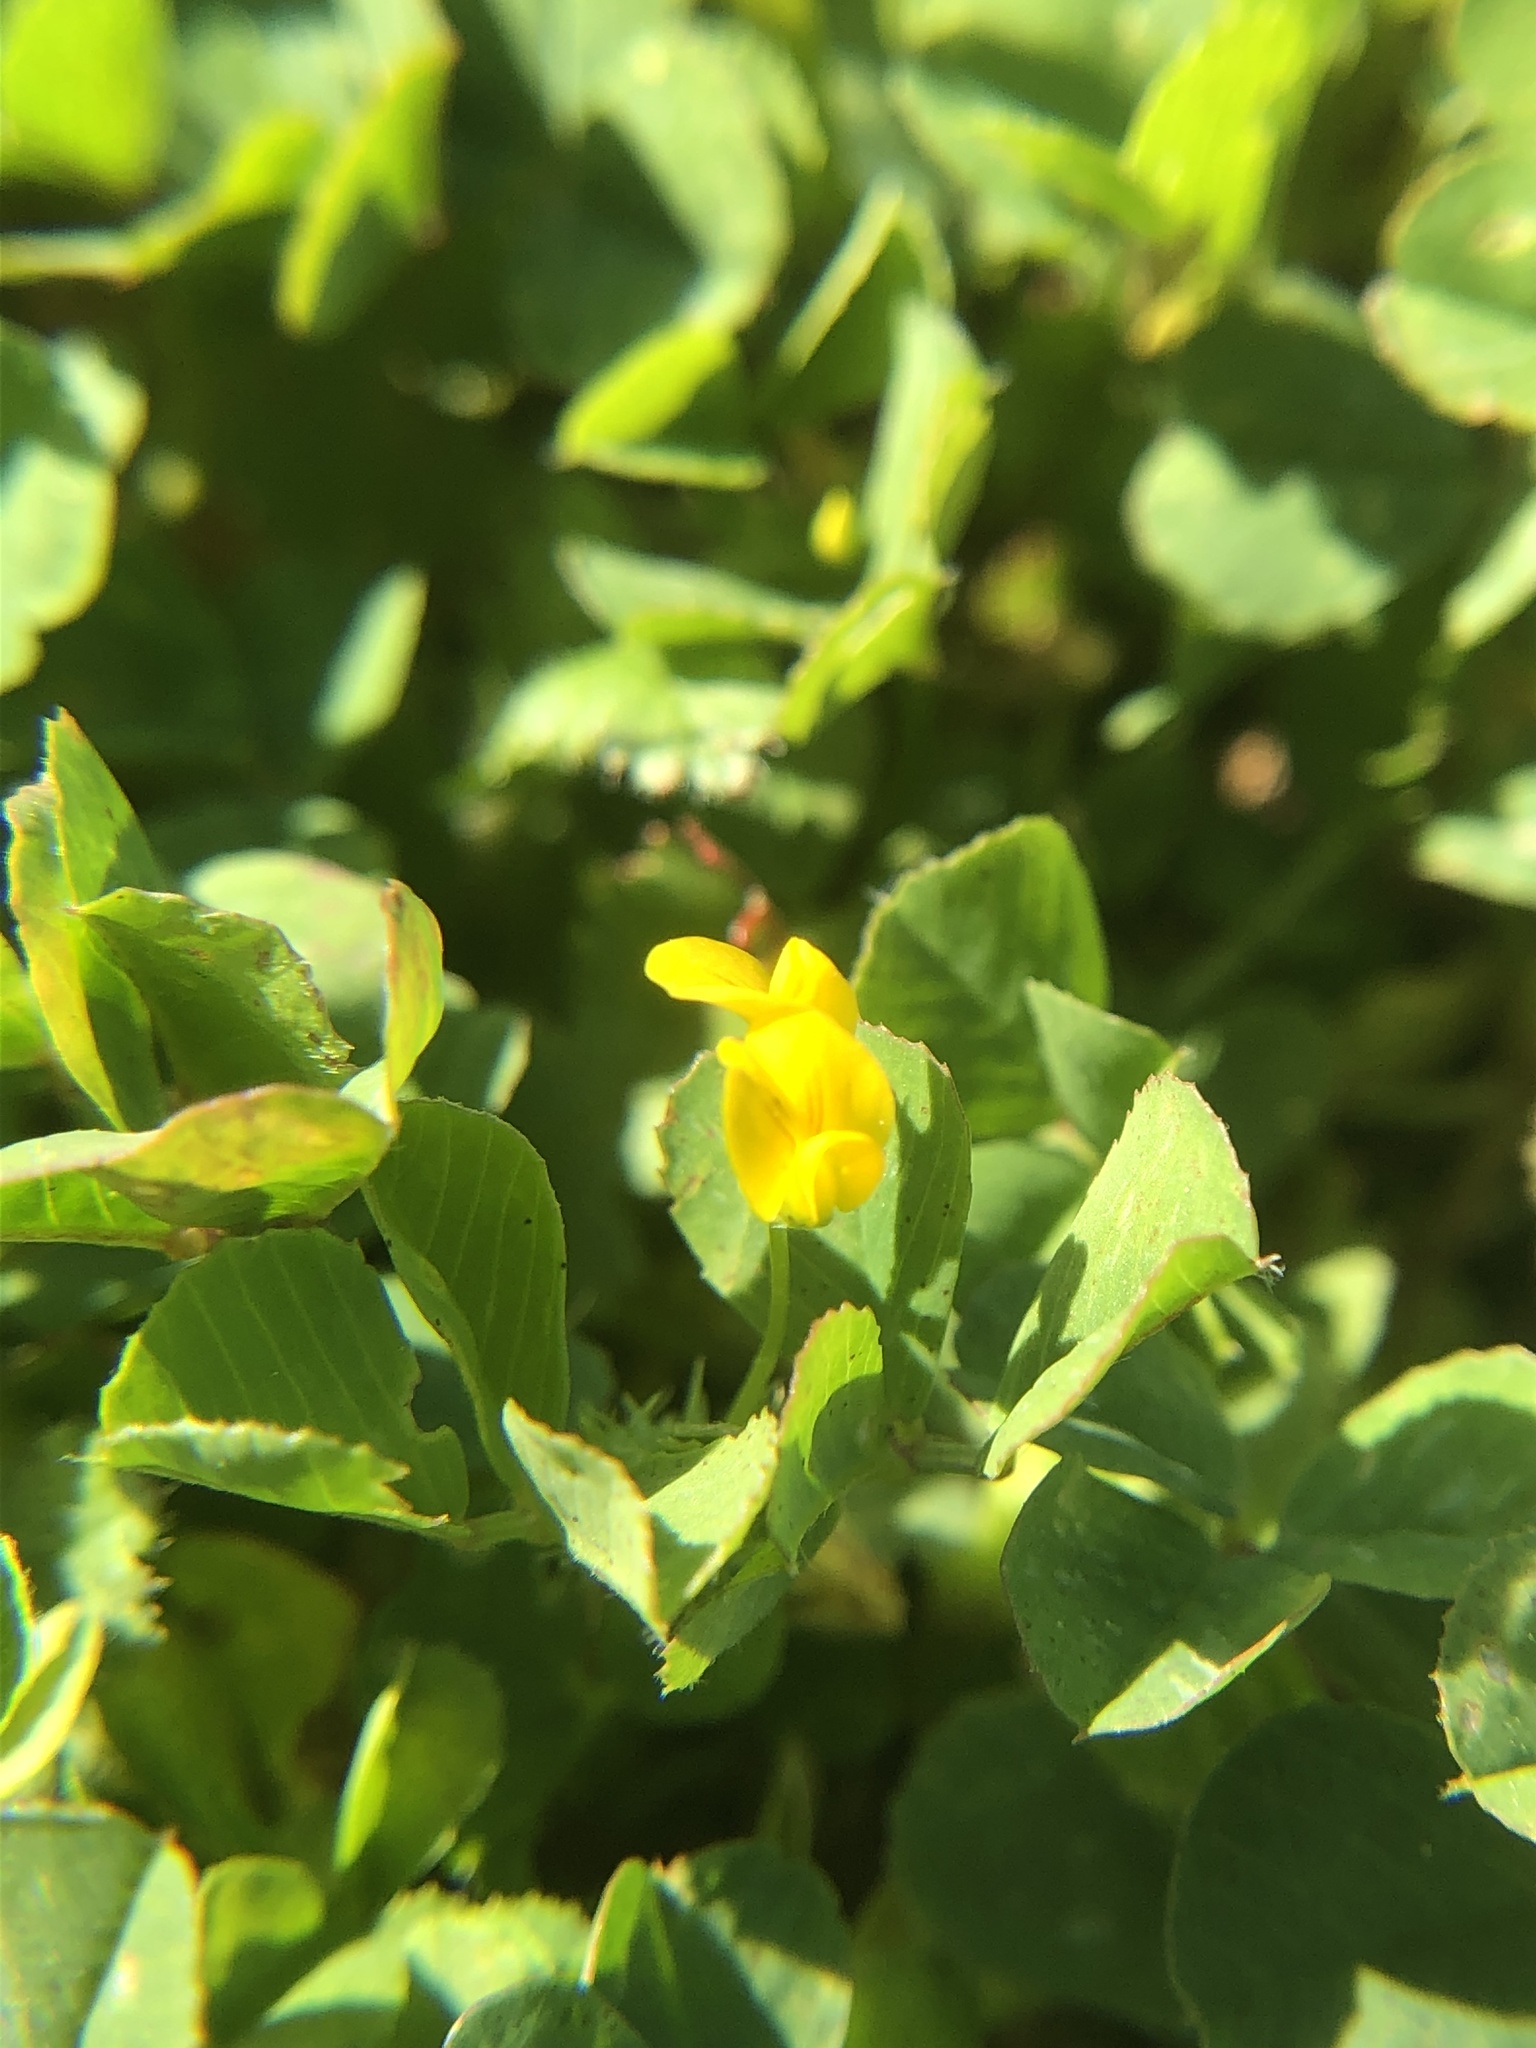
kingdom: Plantae
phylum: Tracheophyta
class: Magnoliopsida
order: Fabales
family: Fabaceae
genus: Medicago
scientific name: Medicago polymorpha
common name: Burclover
